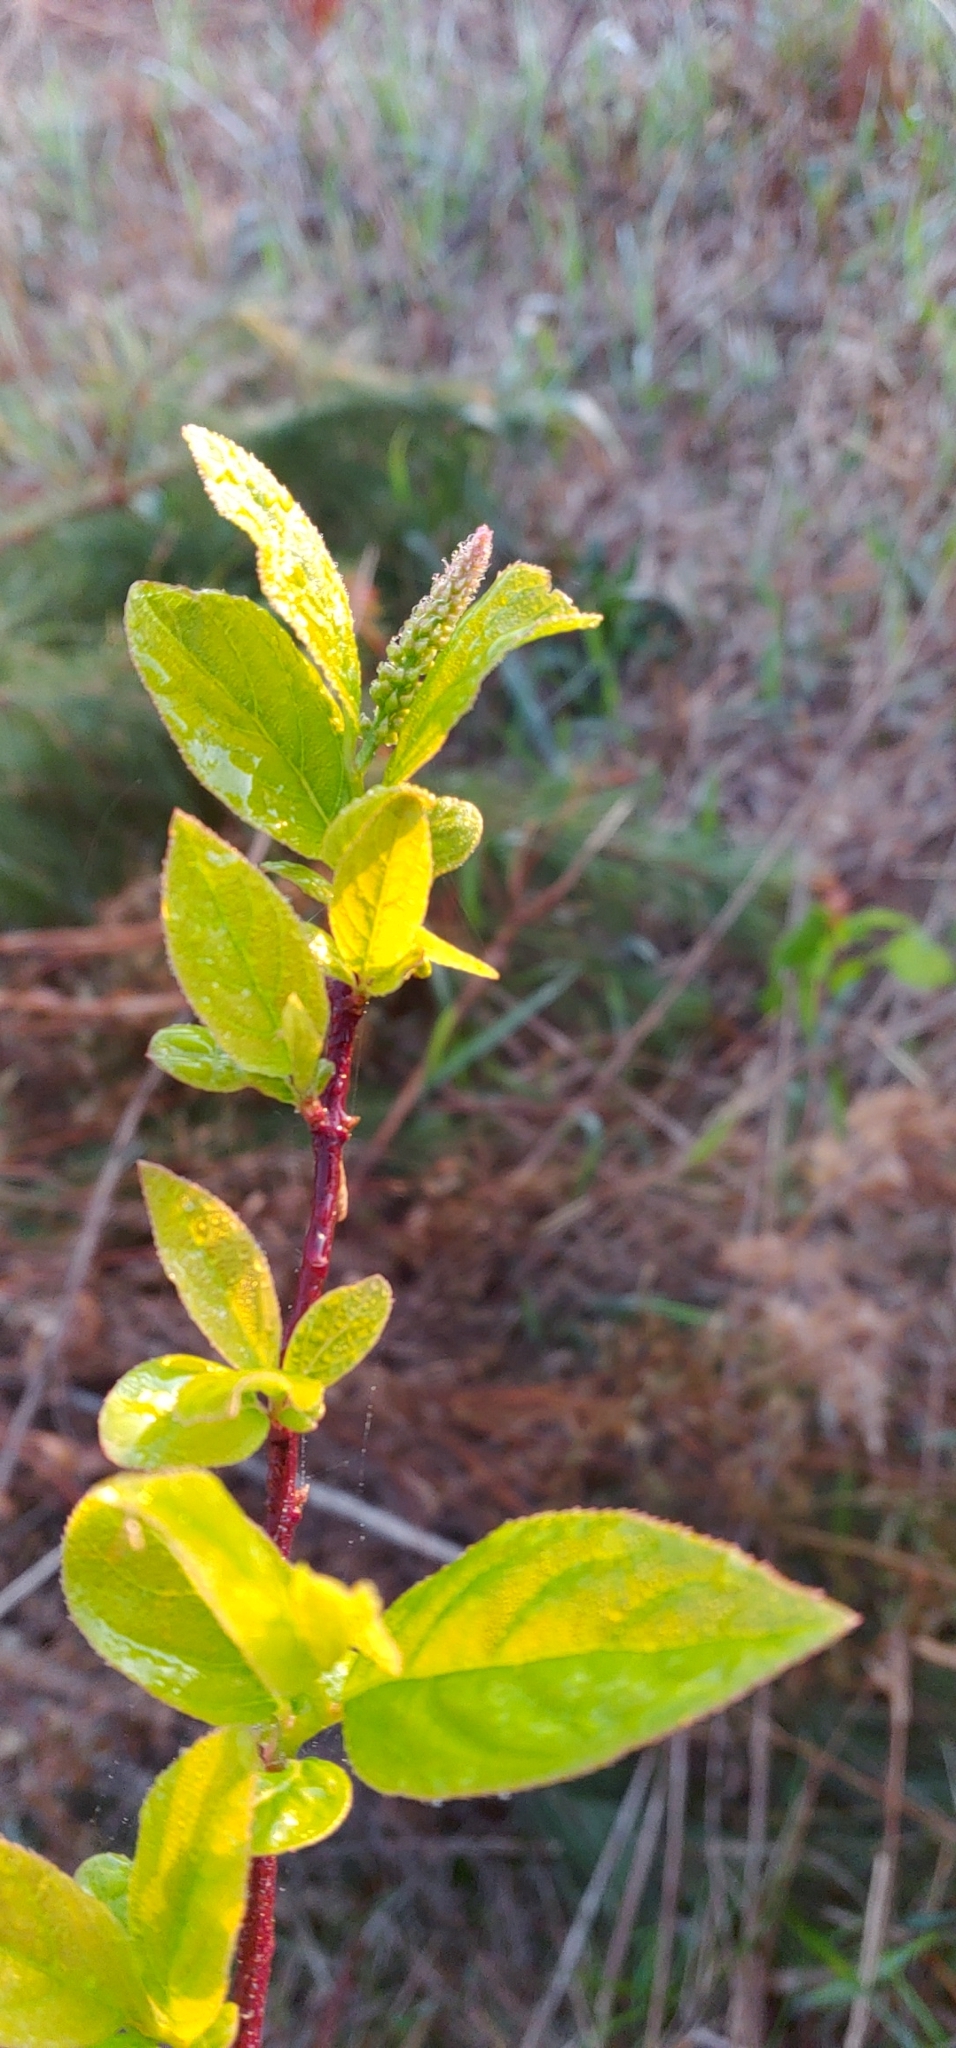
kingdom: Plantae
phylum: Tracheophyta
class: Magnoliopsida
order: Saxifragales
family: Iteaceae
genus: Itea
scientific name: Itea virginica
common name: Sweetspire
